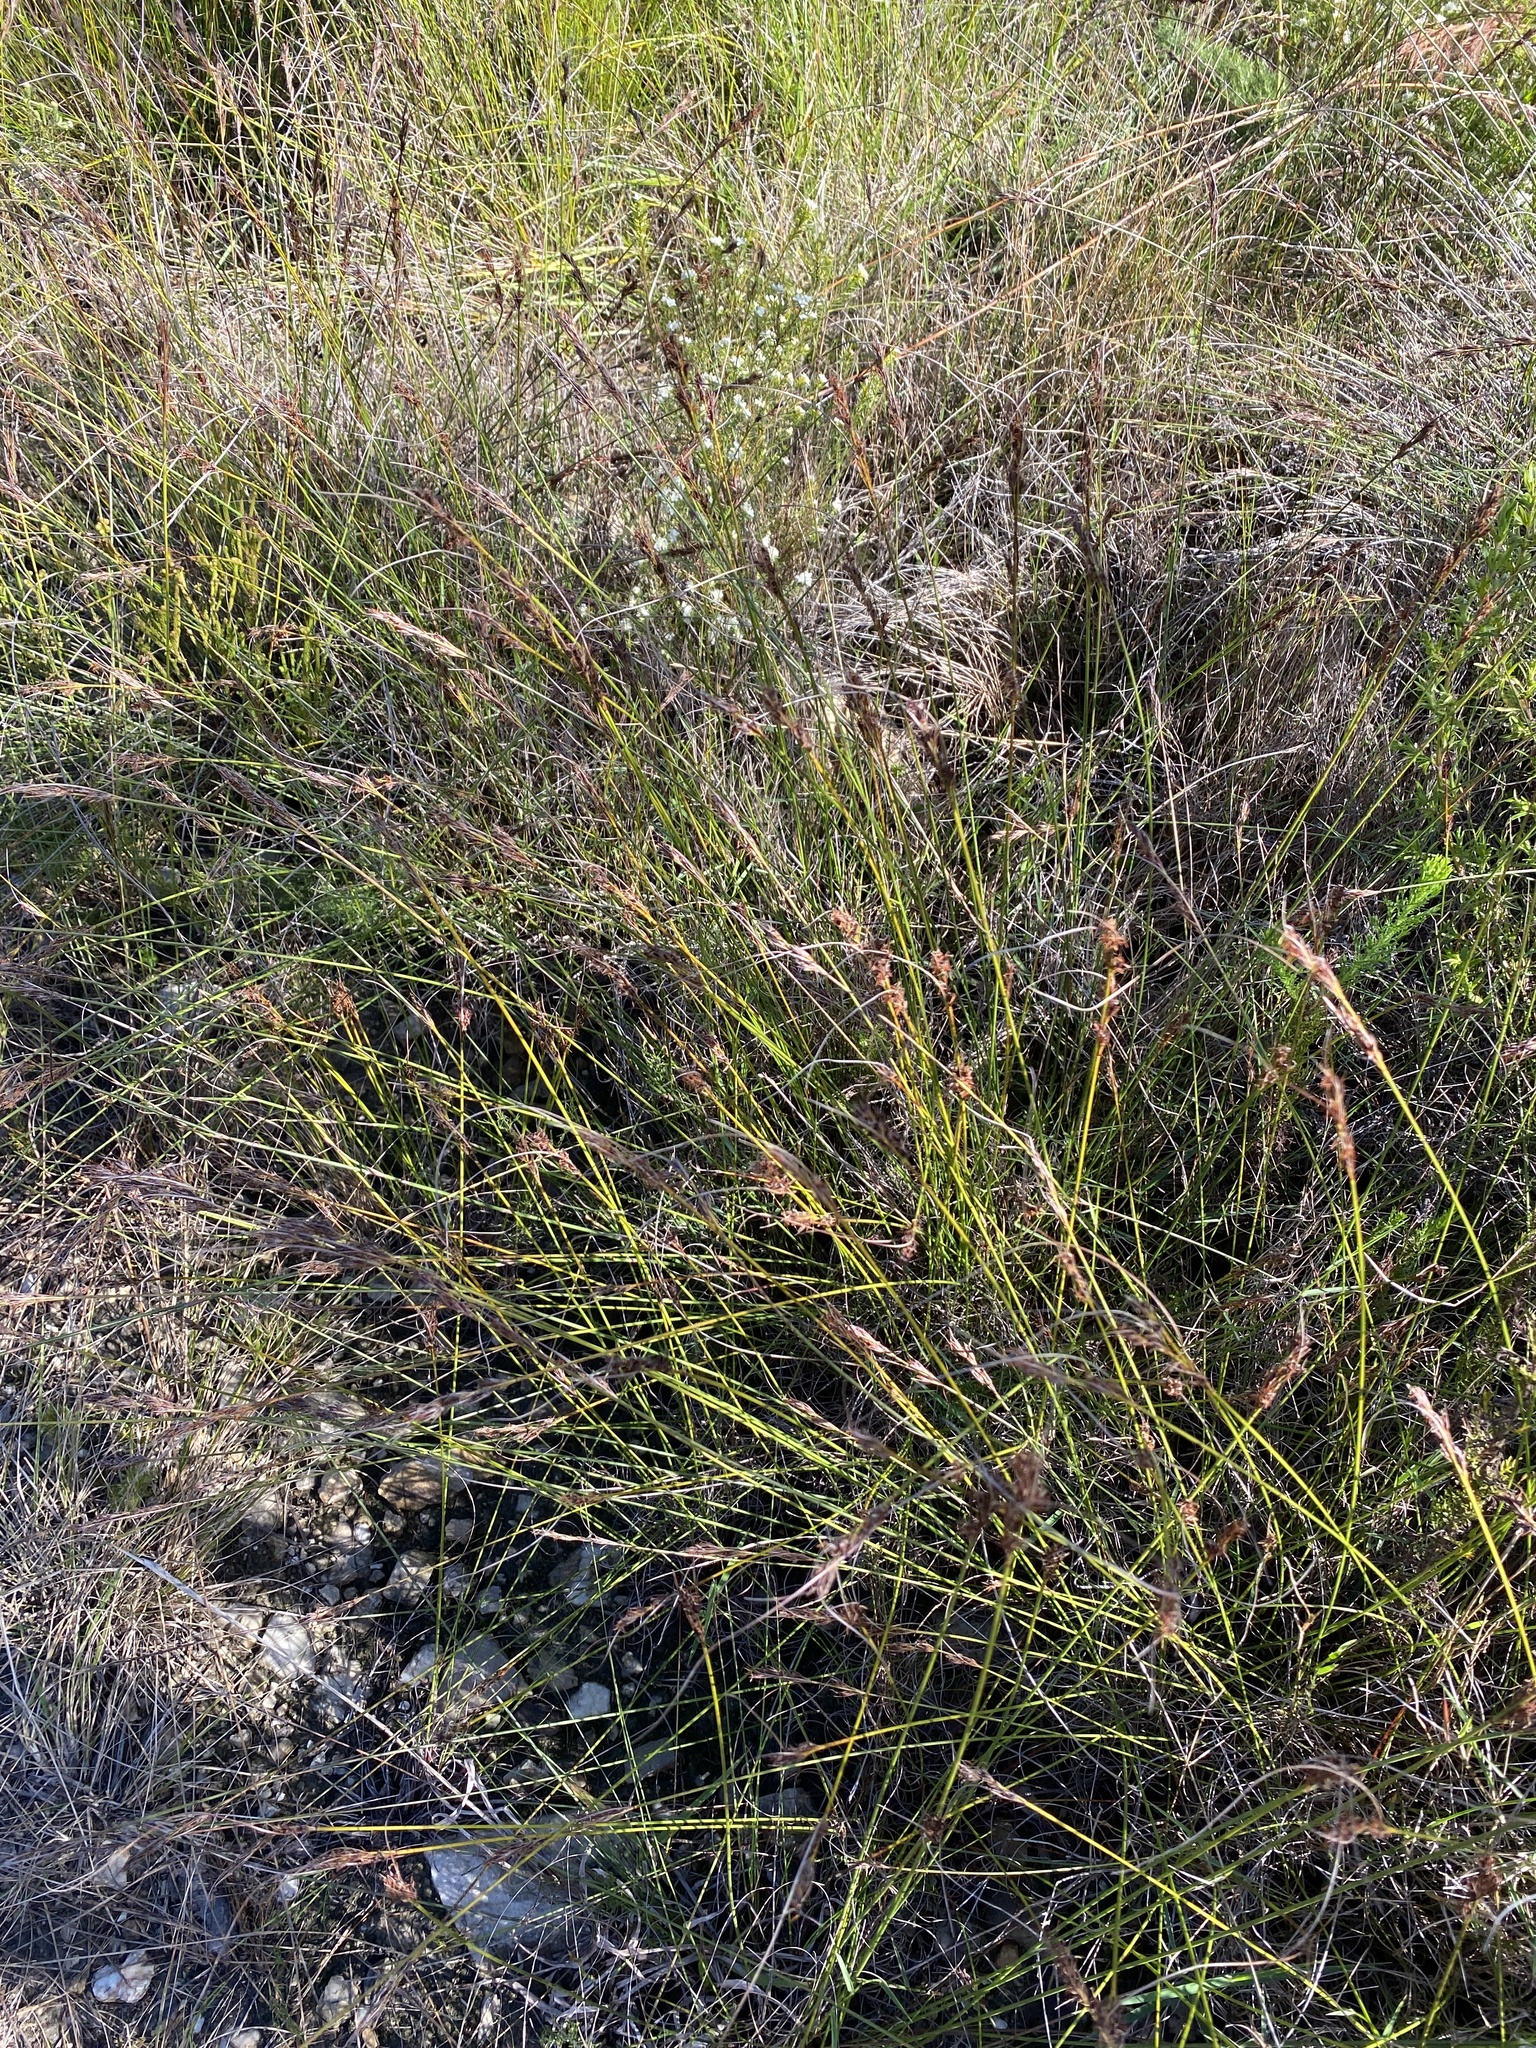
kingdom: Plantae
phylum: Tracheophyta
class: Liliopsida
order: Poales
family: Cyperaceae
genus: Schoenus
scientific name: Schoenus cuspidatus
